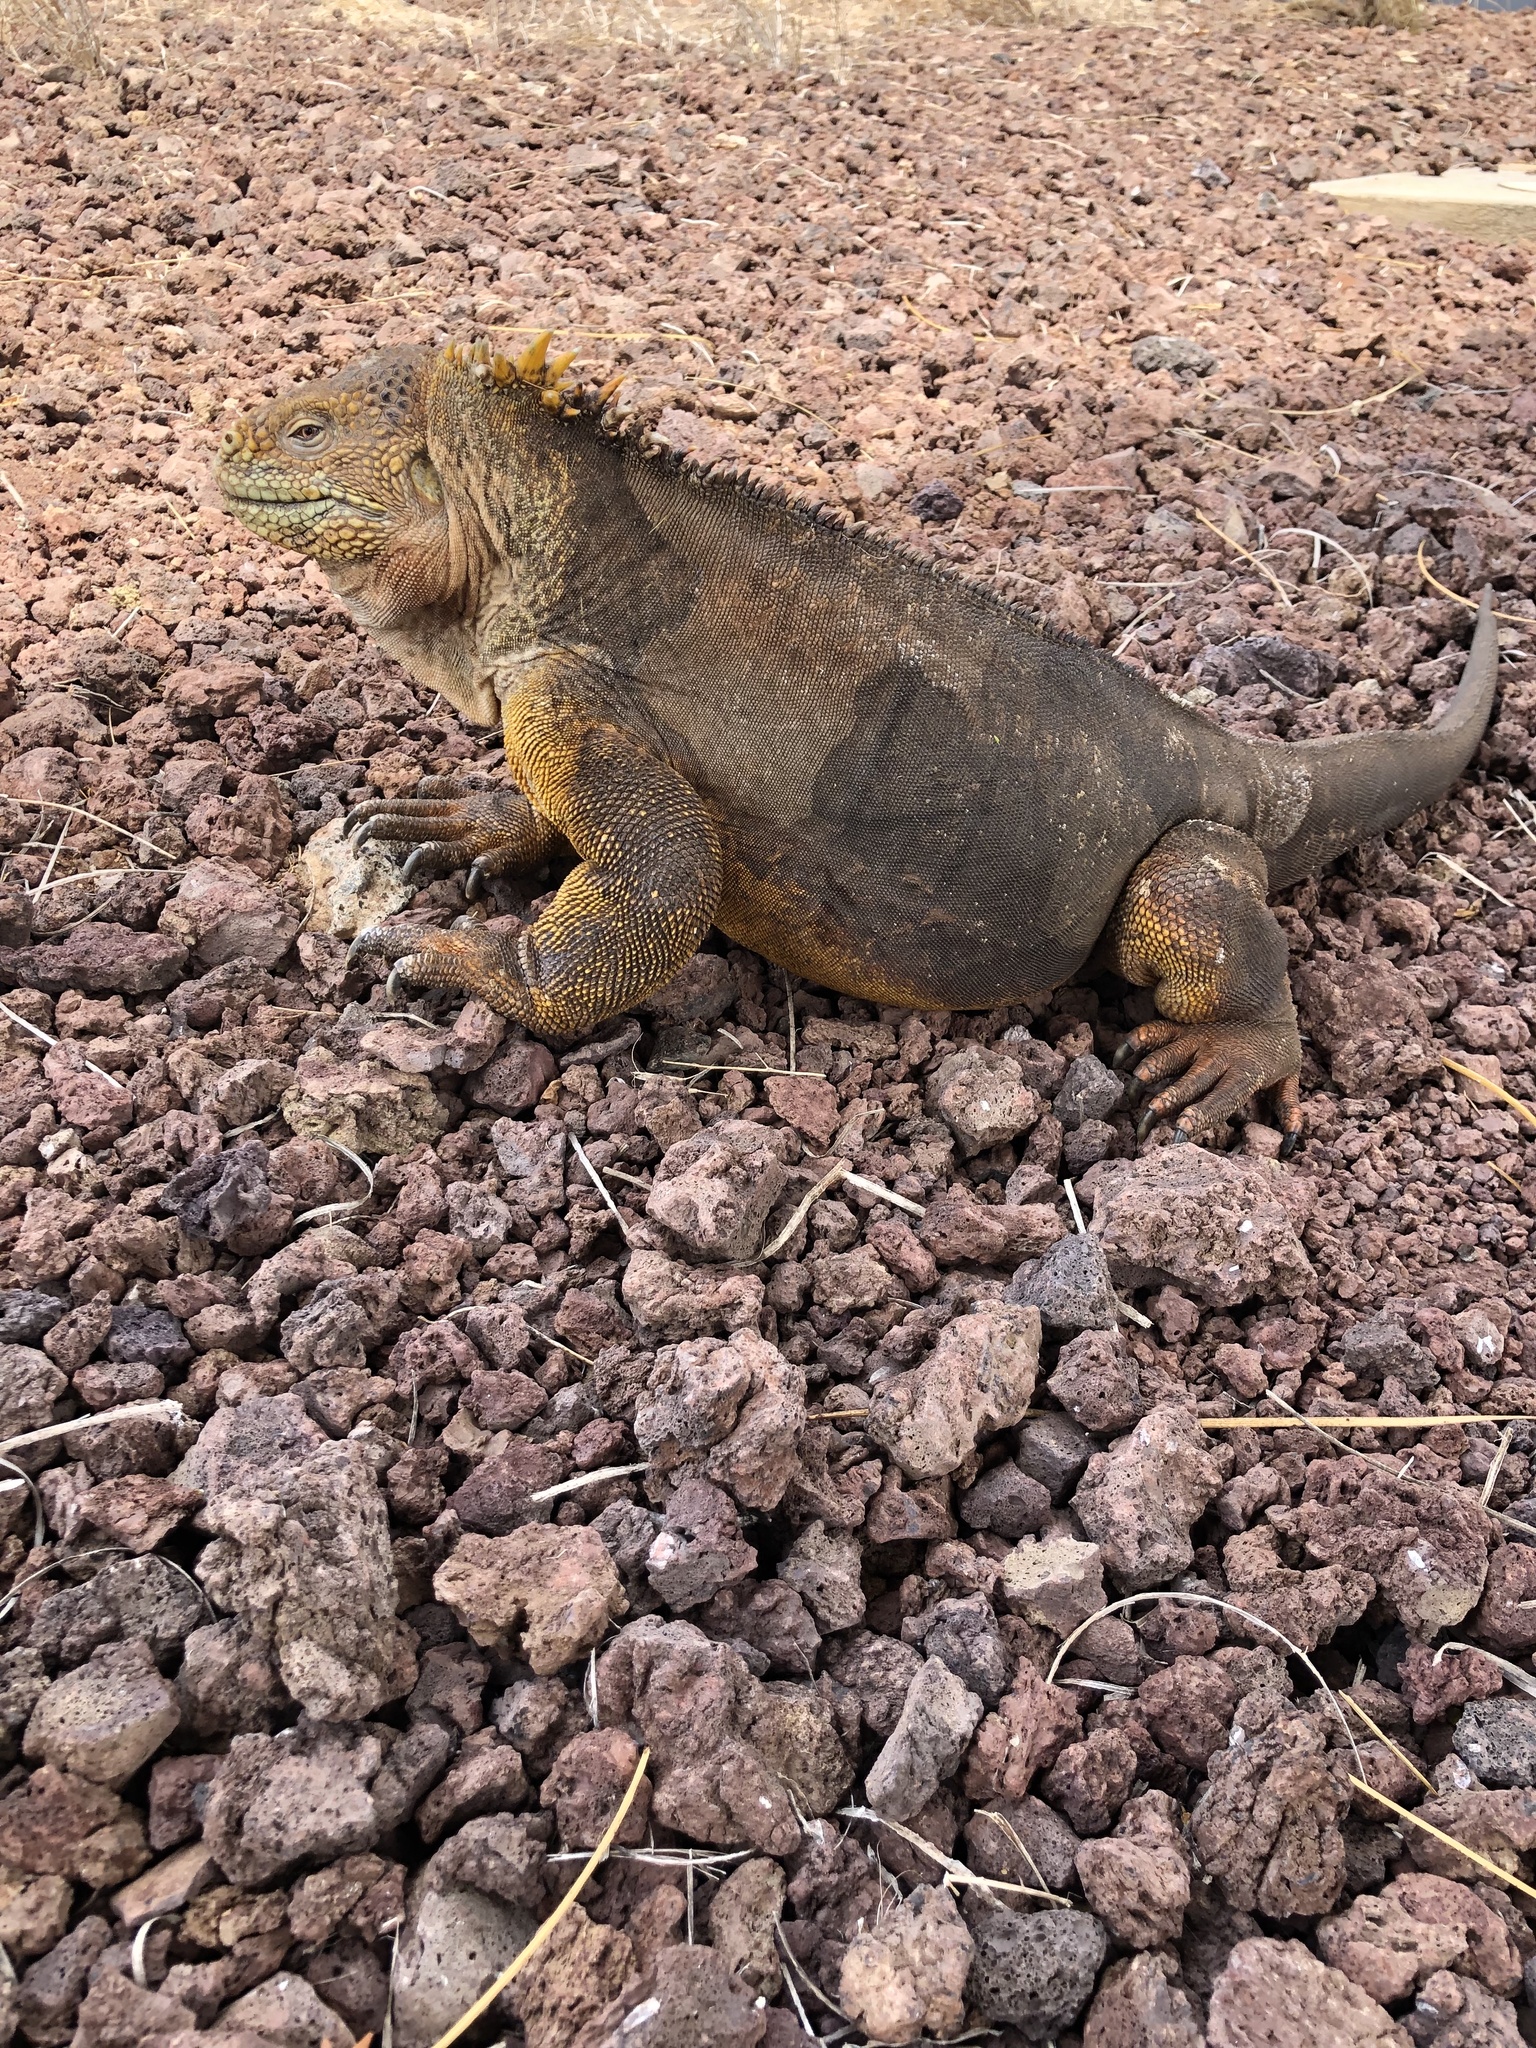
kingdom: Animalia
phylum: Chordata
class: Squamata
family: Iguanidae
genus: Conolophus
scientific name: Conolophus subcristatus
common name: Galapagos land iguana
